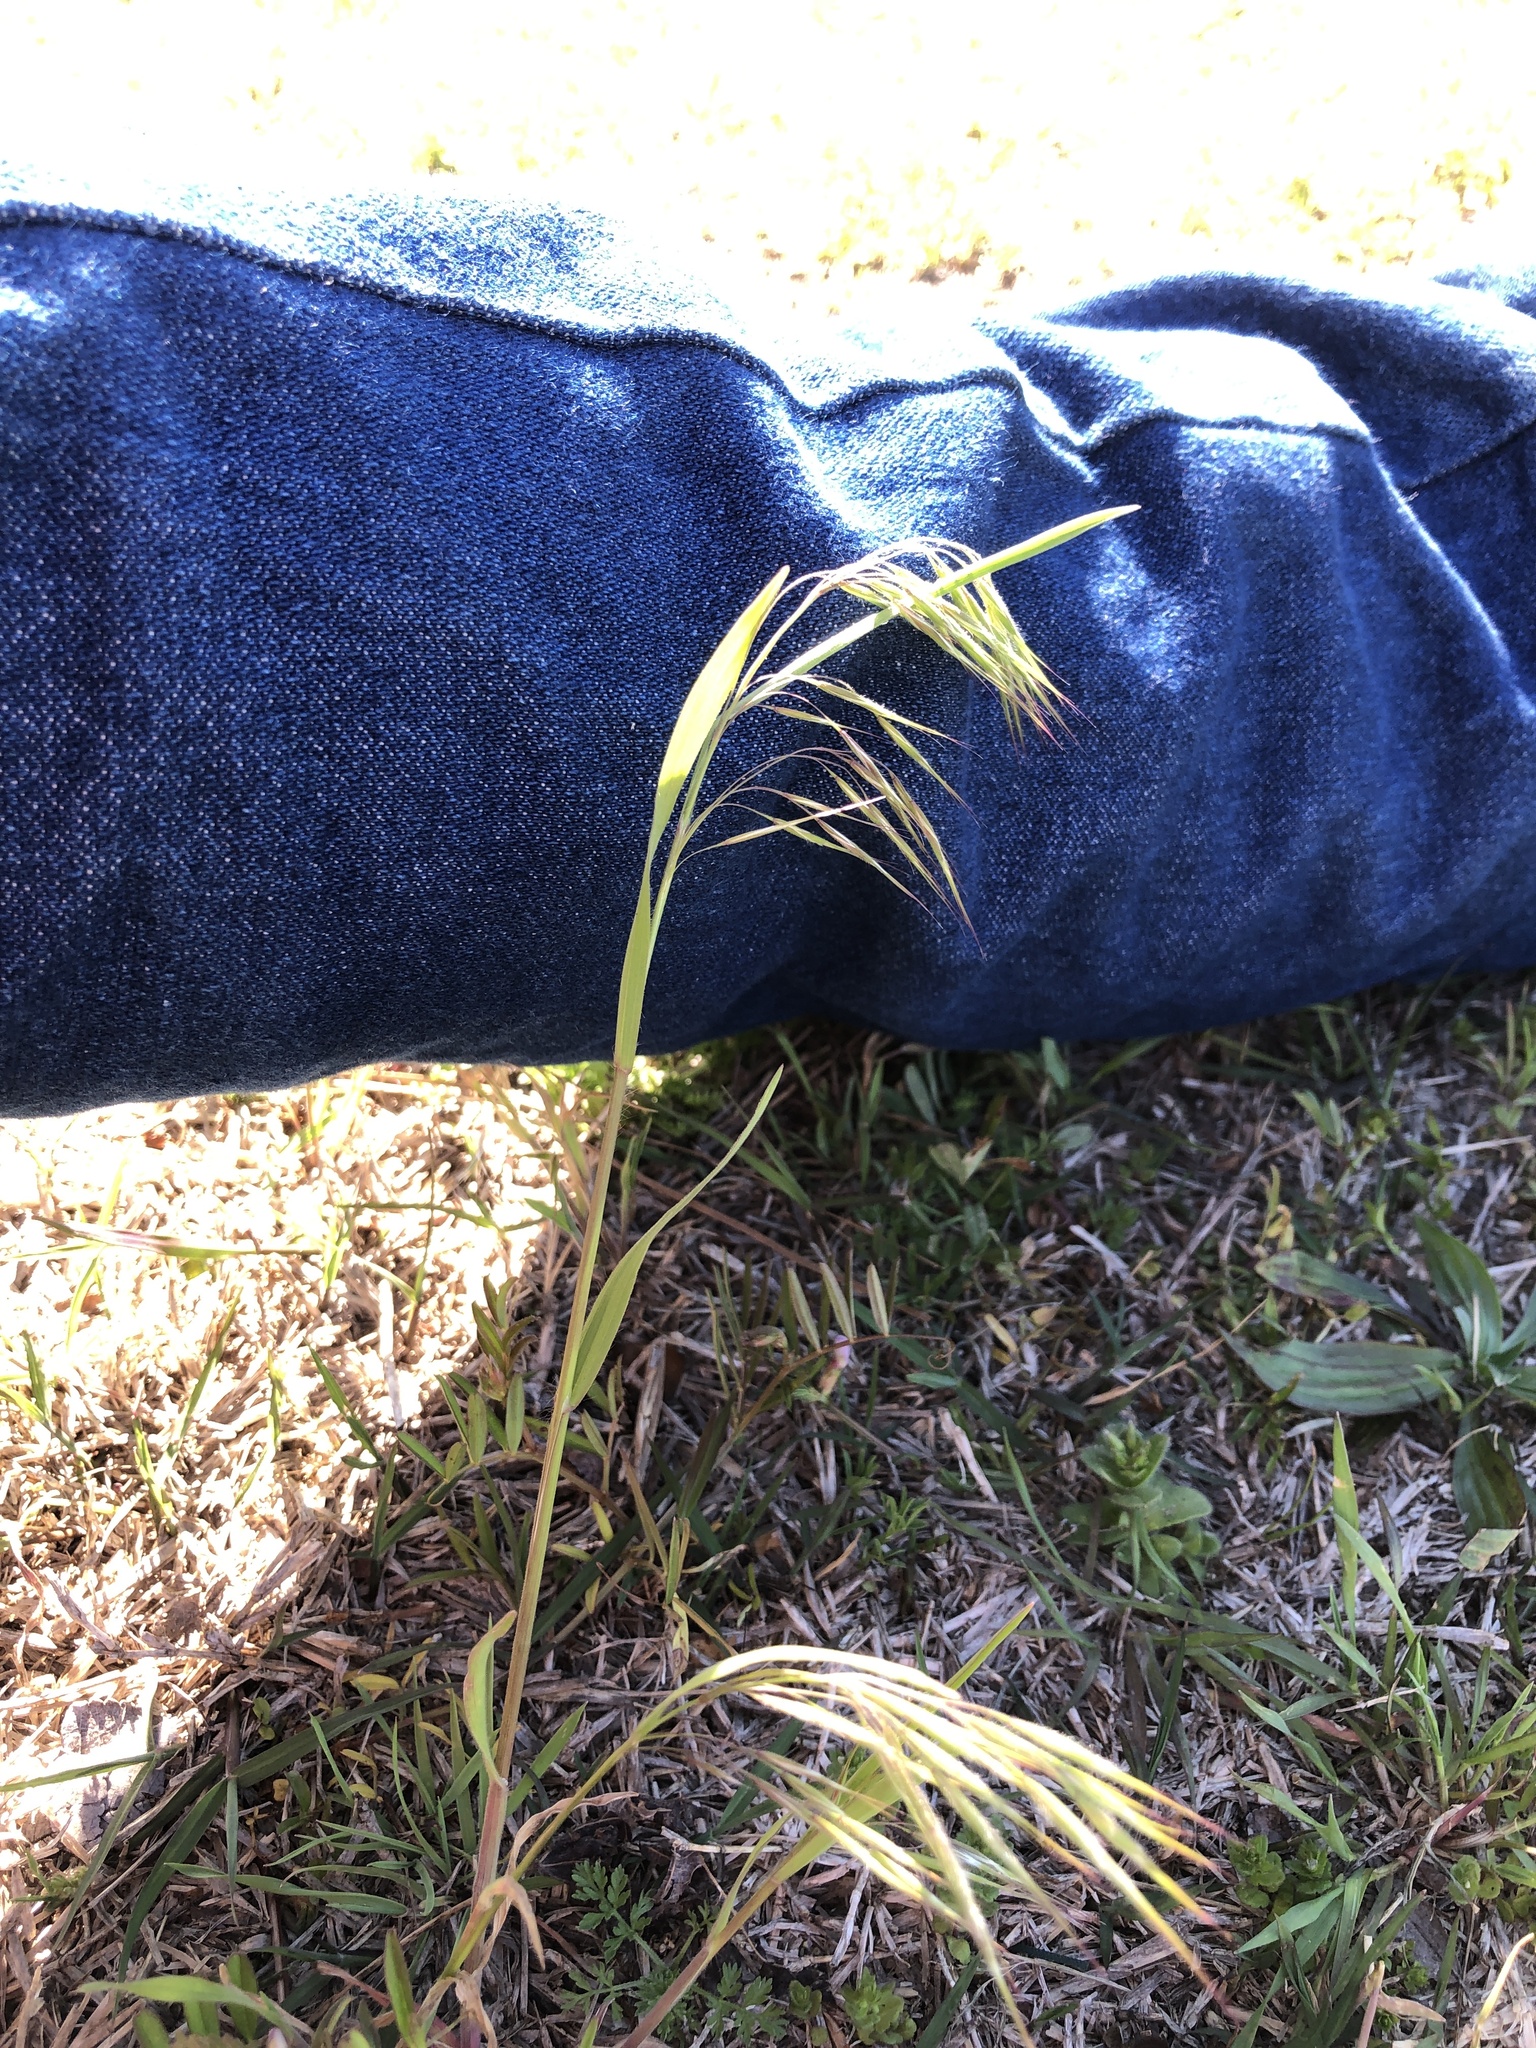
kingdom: Plantae
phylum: Tracheophyta
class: Liliopsida
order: Poales
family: Poaceae
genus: Bromus
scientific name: Bromus tectorum
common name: Cheatgrass
